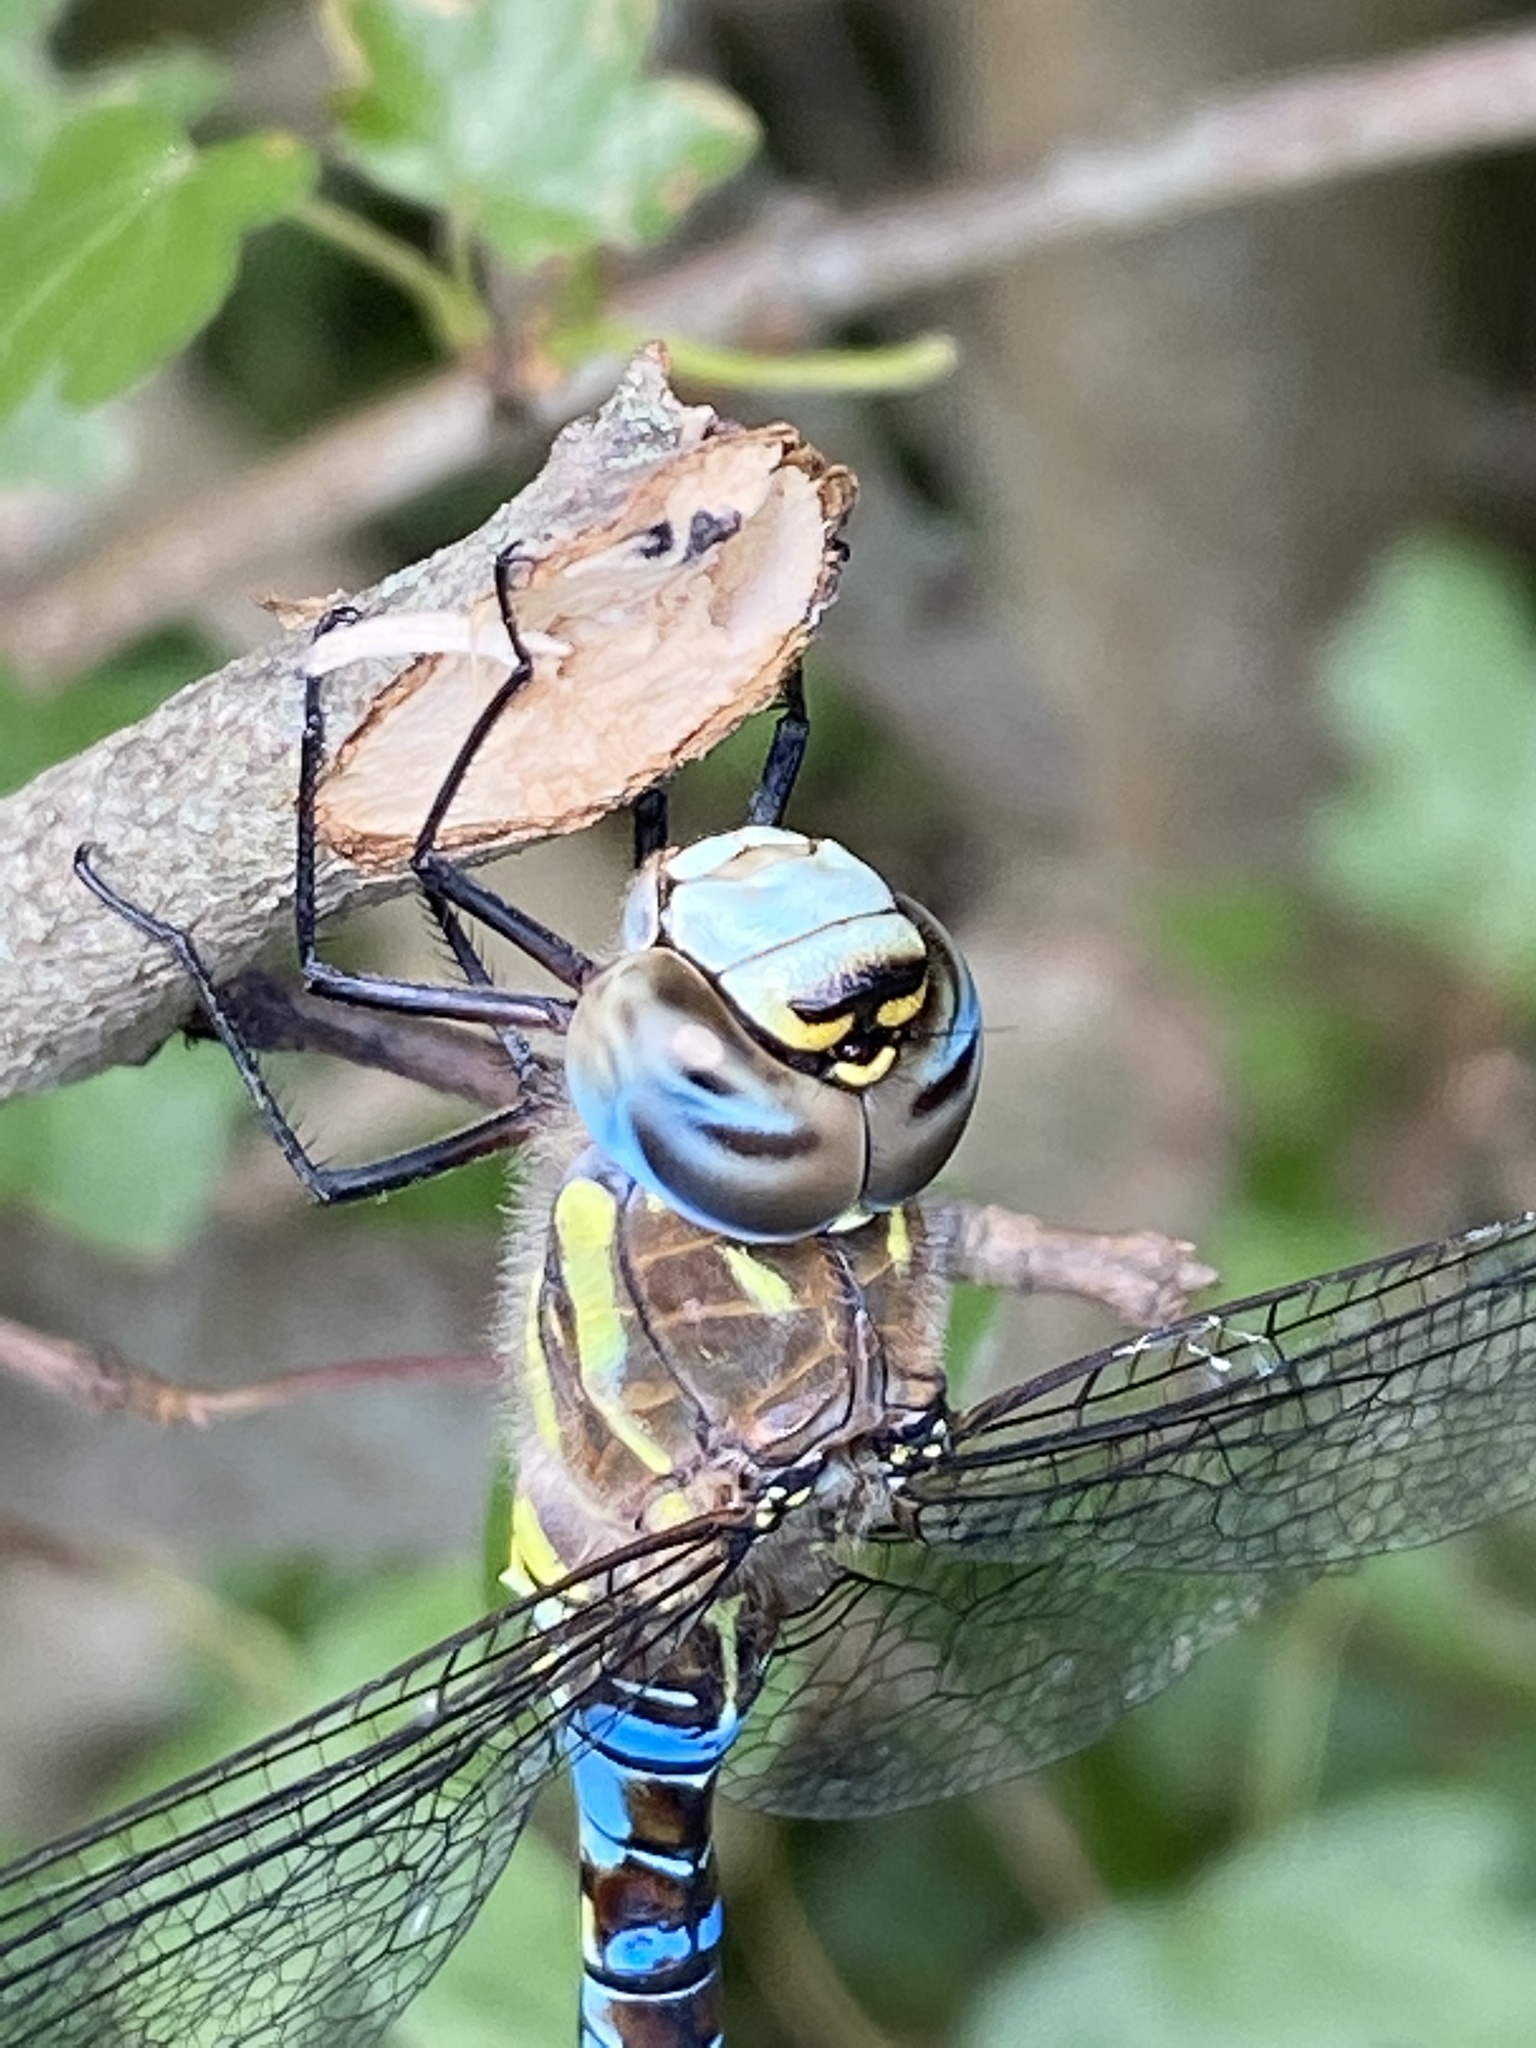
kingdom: Animalia
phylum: Arthropoda
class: Insecta
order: Odonata
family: Aeshnidae
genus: Aeshna
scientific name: Aeshna mixta
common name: Migrant hawker
